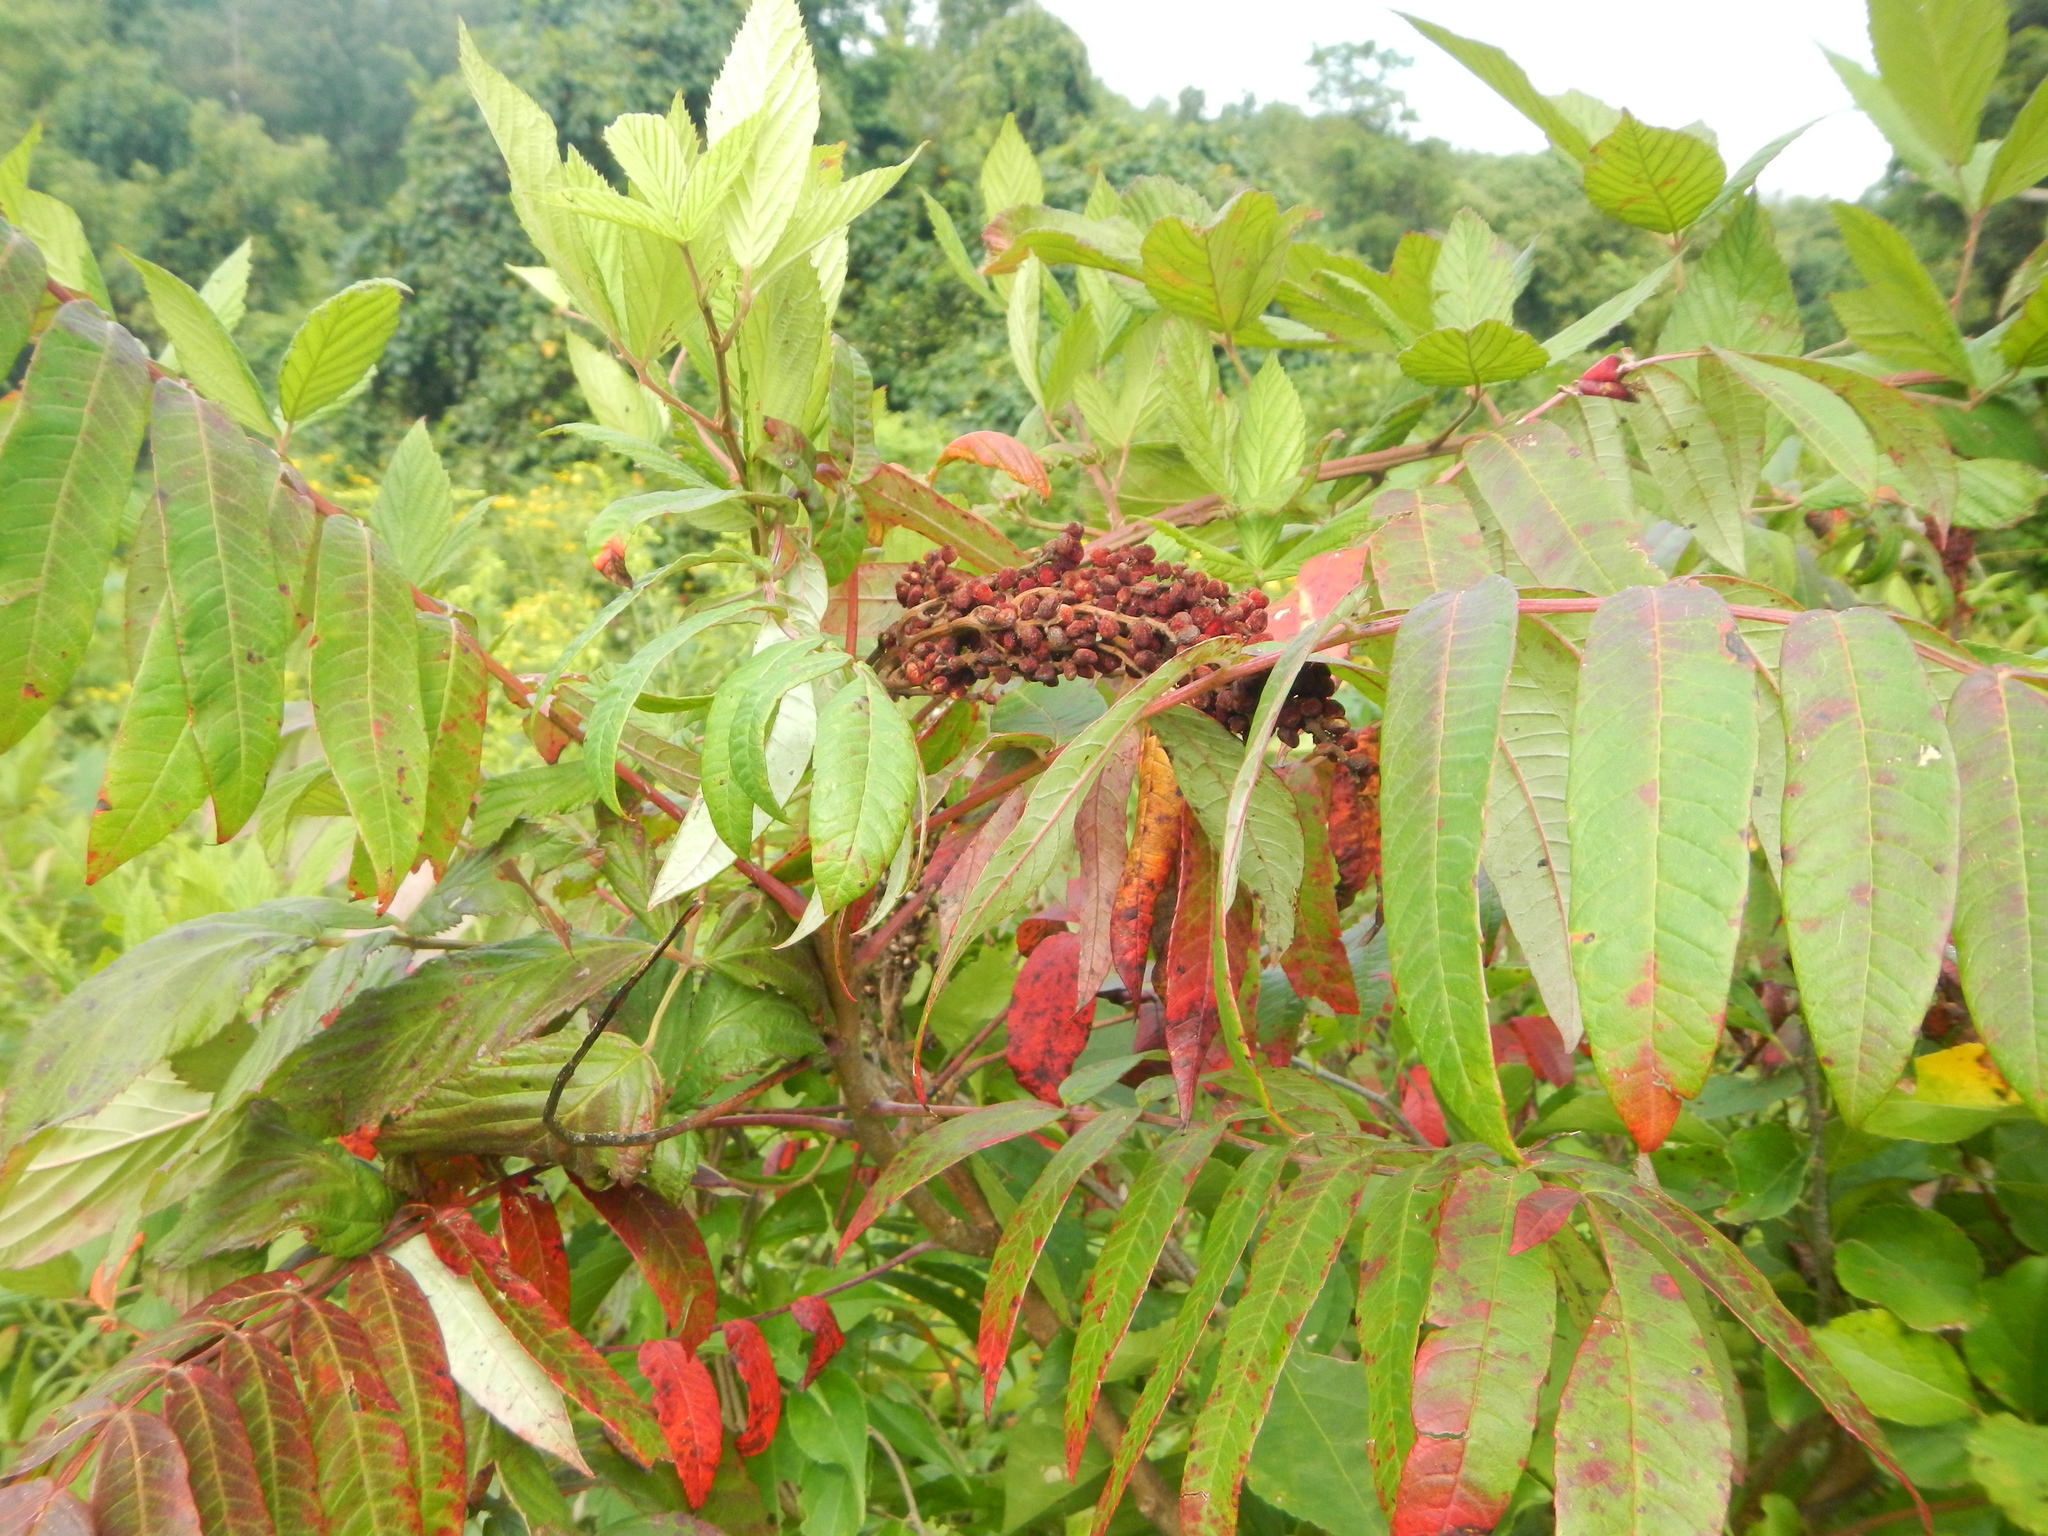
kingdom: Plantae
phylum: Tracheophyta
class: Magnoliopsida
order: Sapindales
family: Anacardiaceae
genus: Rhus
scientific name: Rhus glabra
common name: Scarlet sumac
